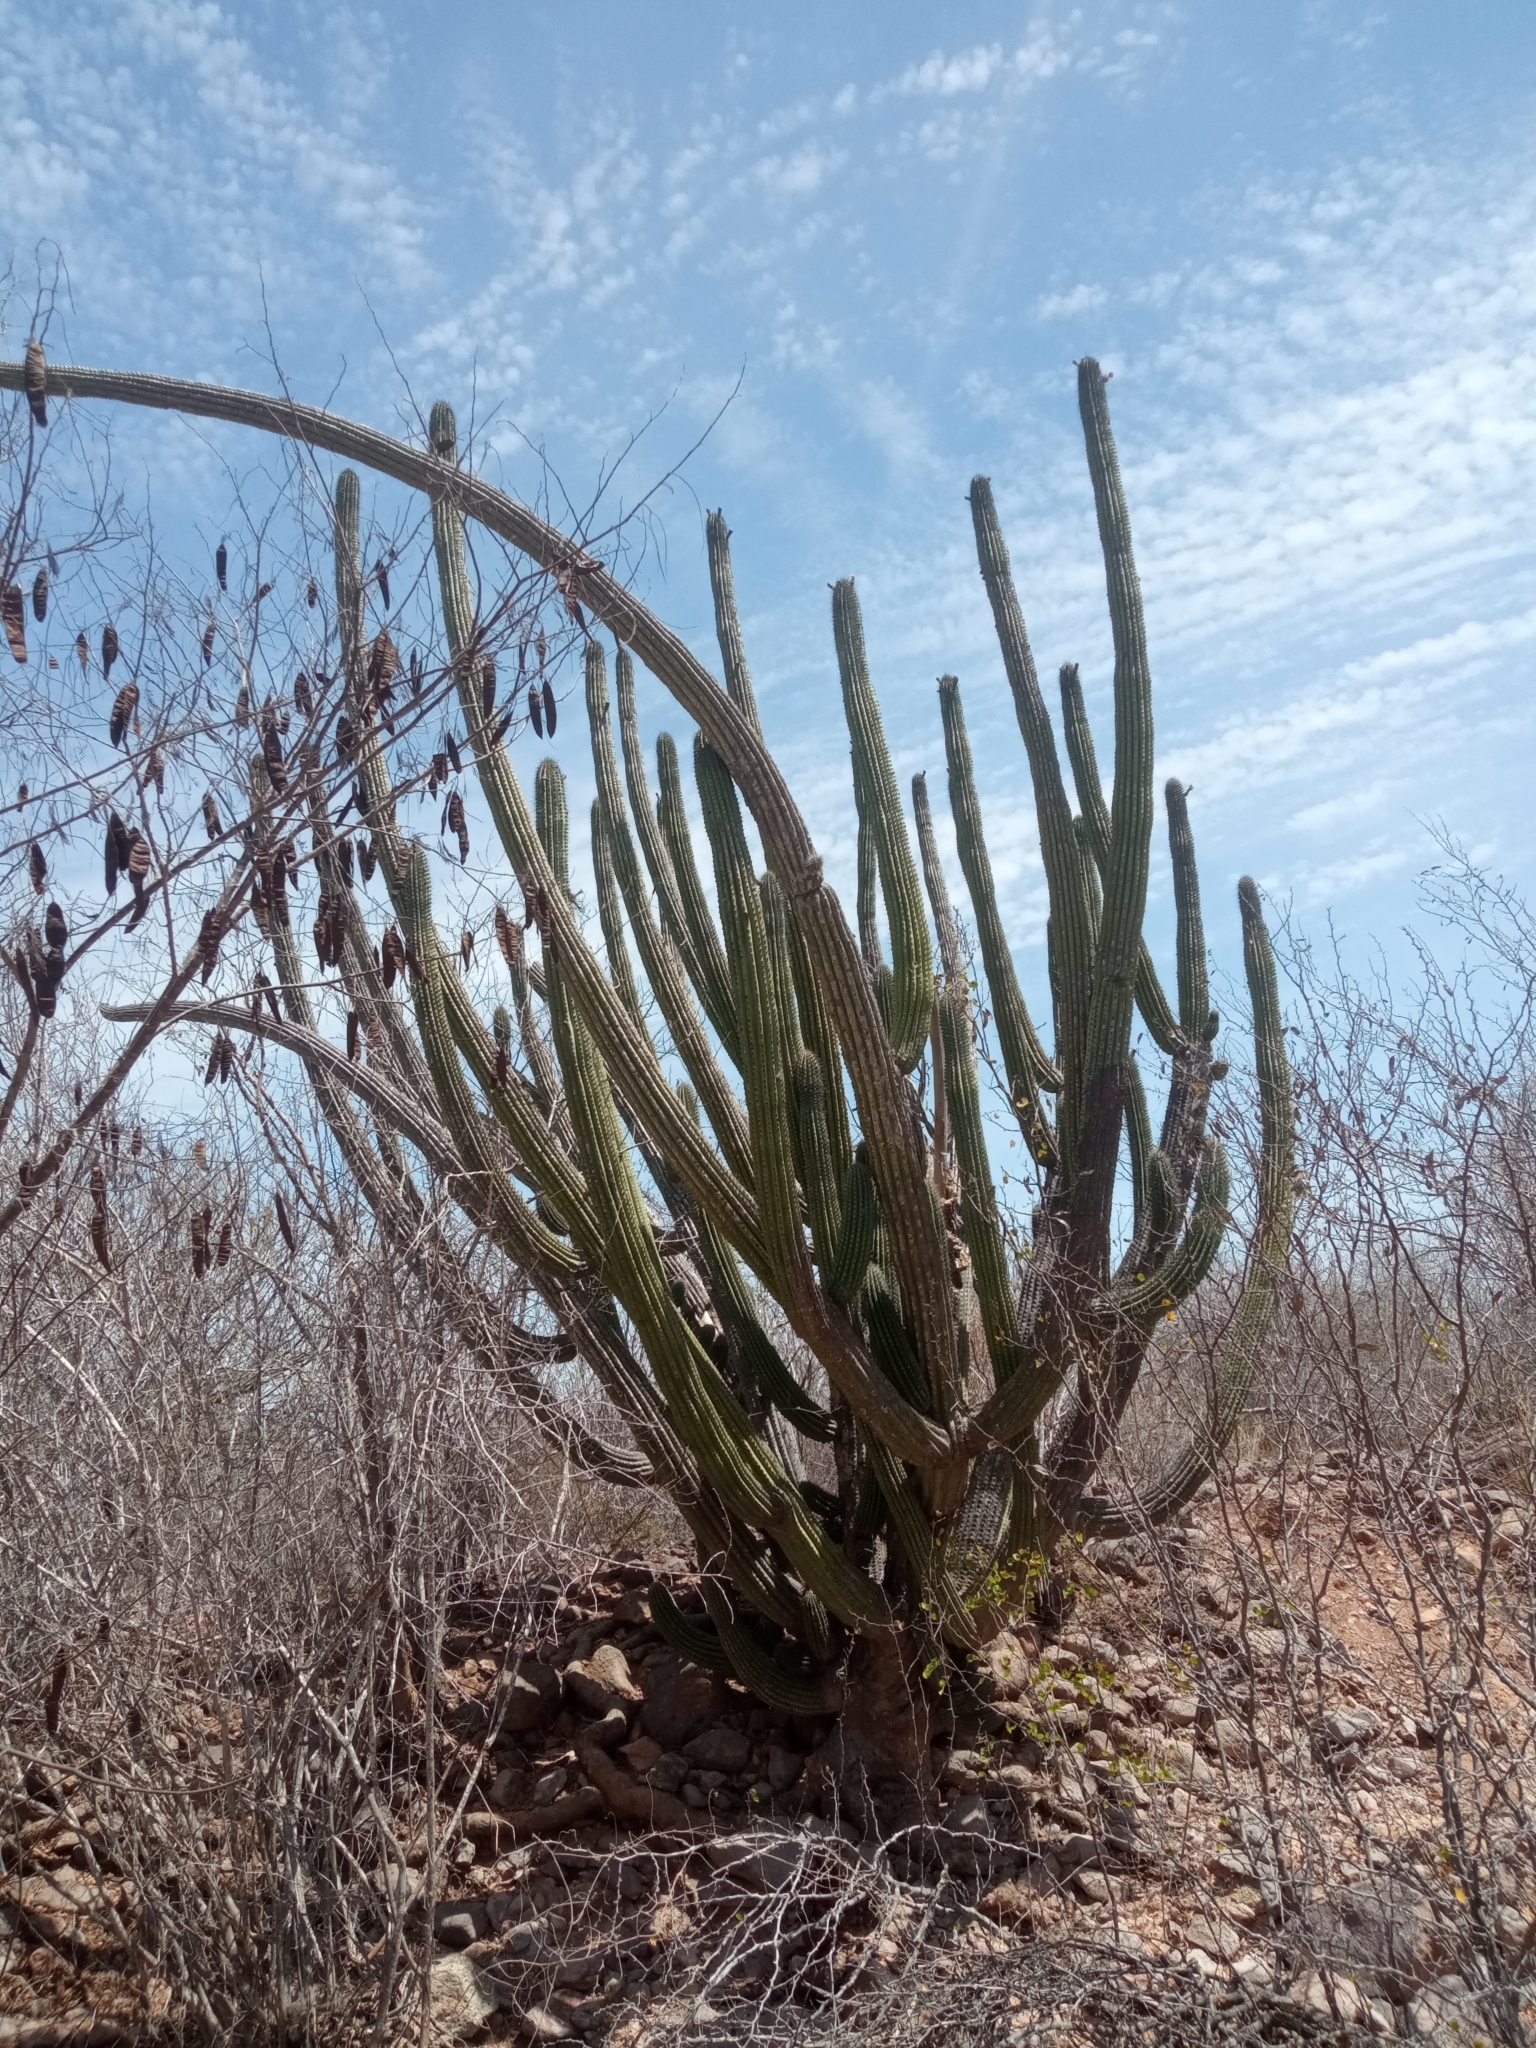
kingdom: Plantae
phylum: Tracheophyta
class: Magnoliopsida
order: Caryophyllales
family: Cactaceae
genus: Stenocereus
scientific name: Stenocereus thurberi
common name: Organ pipe cactus
